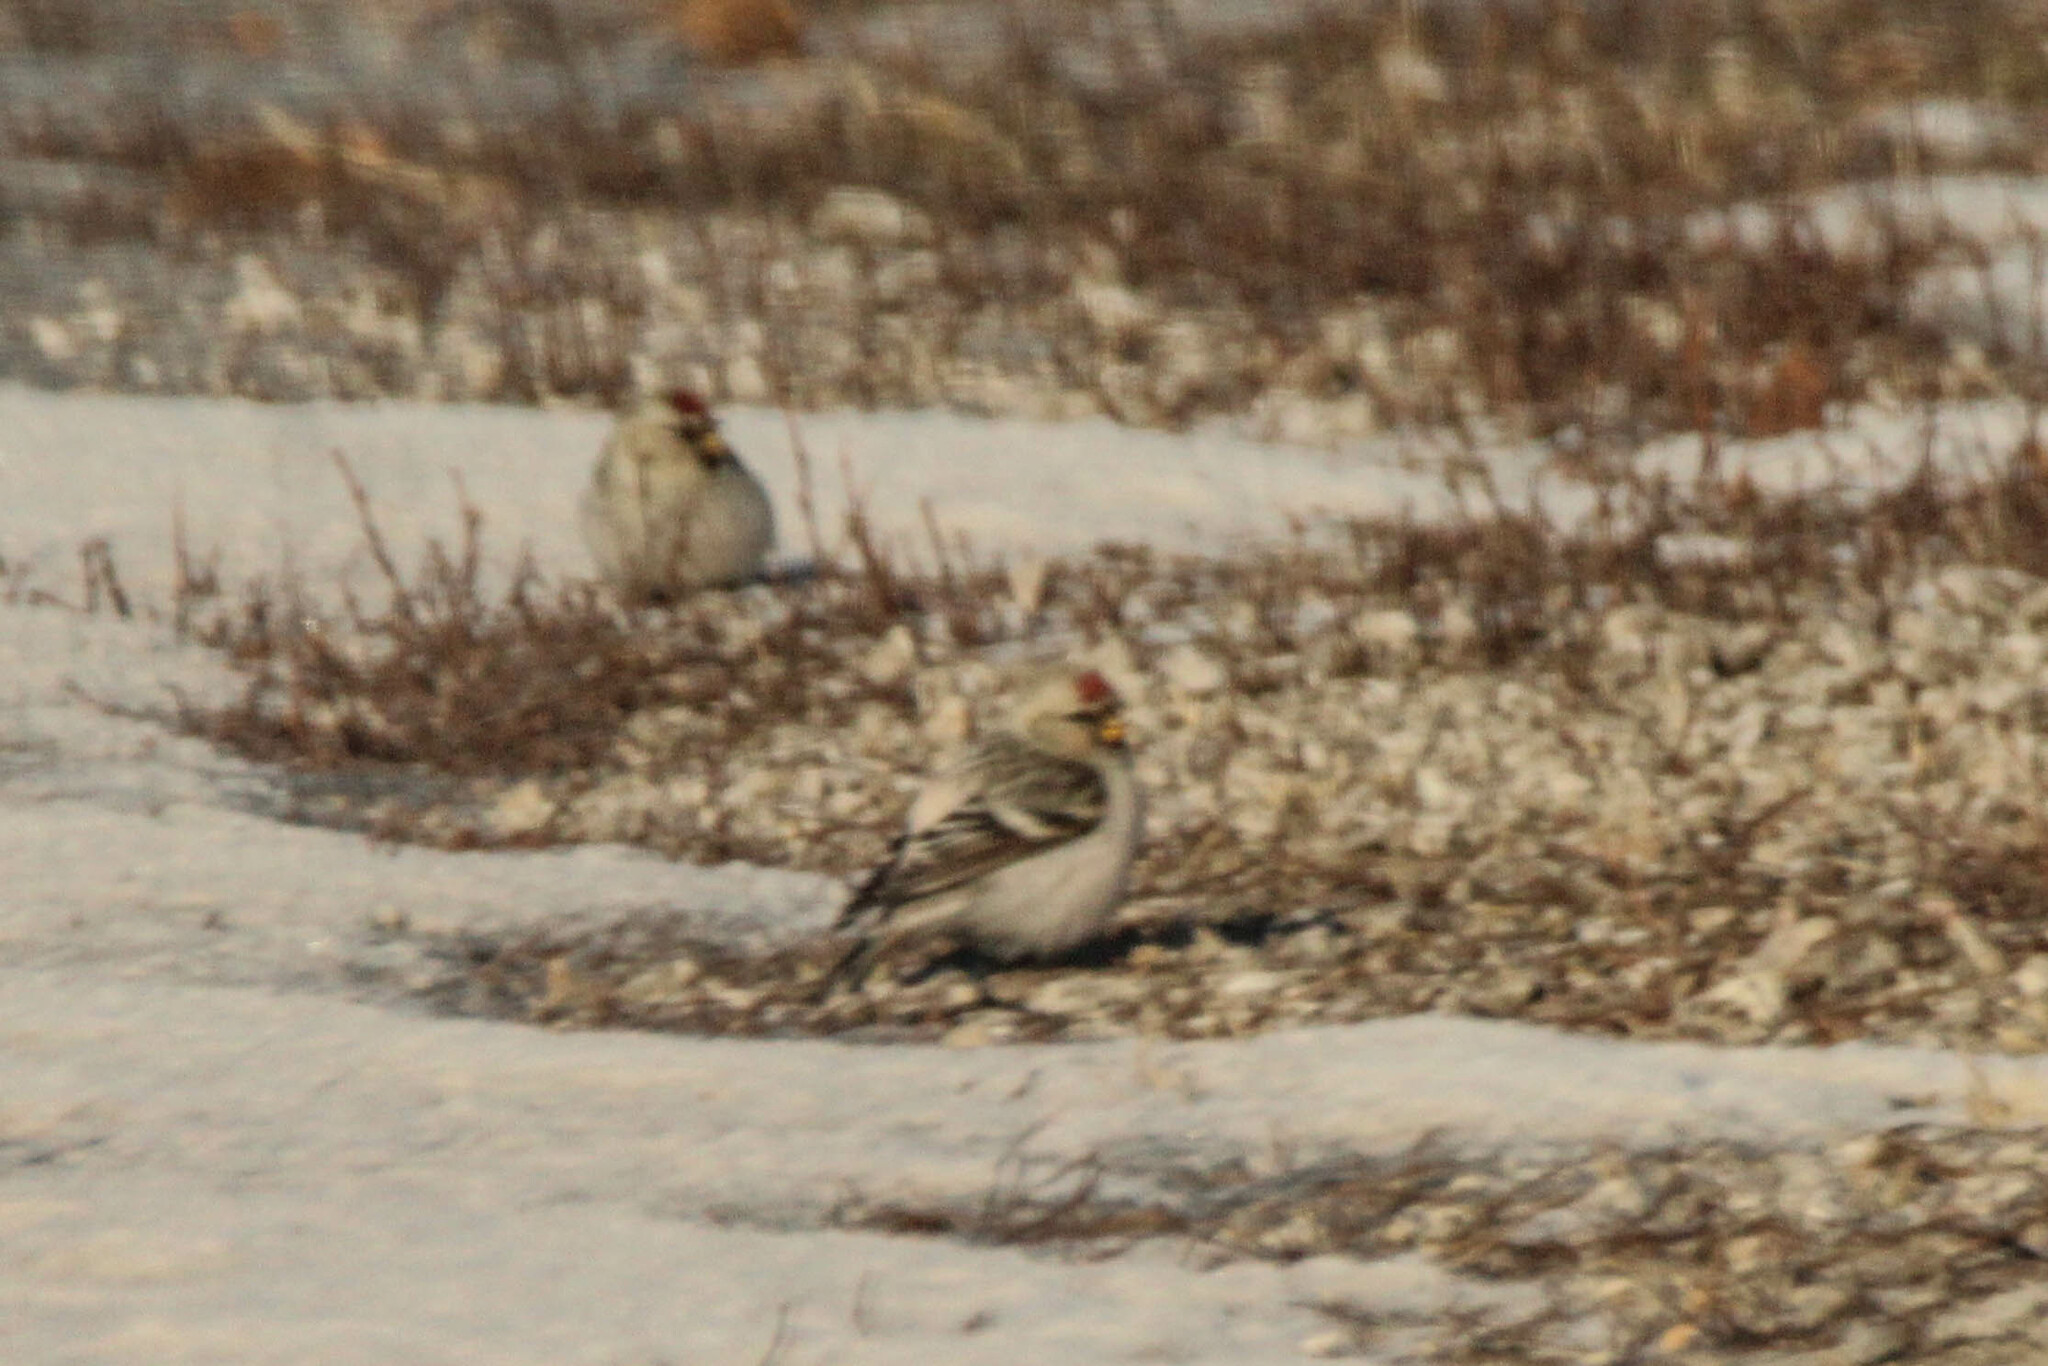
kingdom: Animalia
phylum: Chordata
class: Aves
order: Passeriformes
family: Fringillidae
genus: Acanthis
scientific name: Acanthis hornemanni
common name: Arctic redpoll
